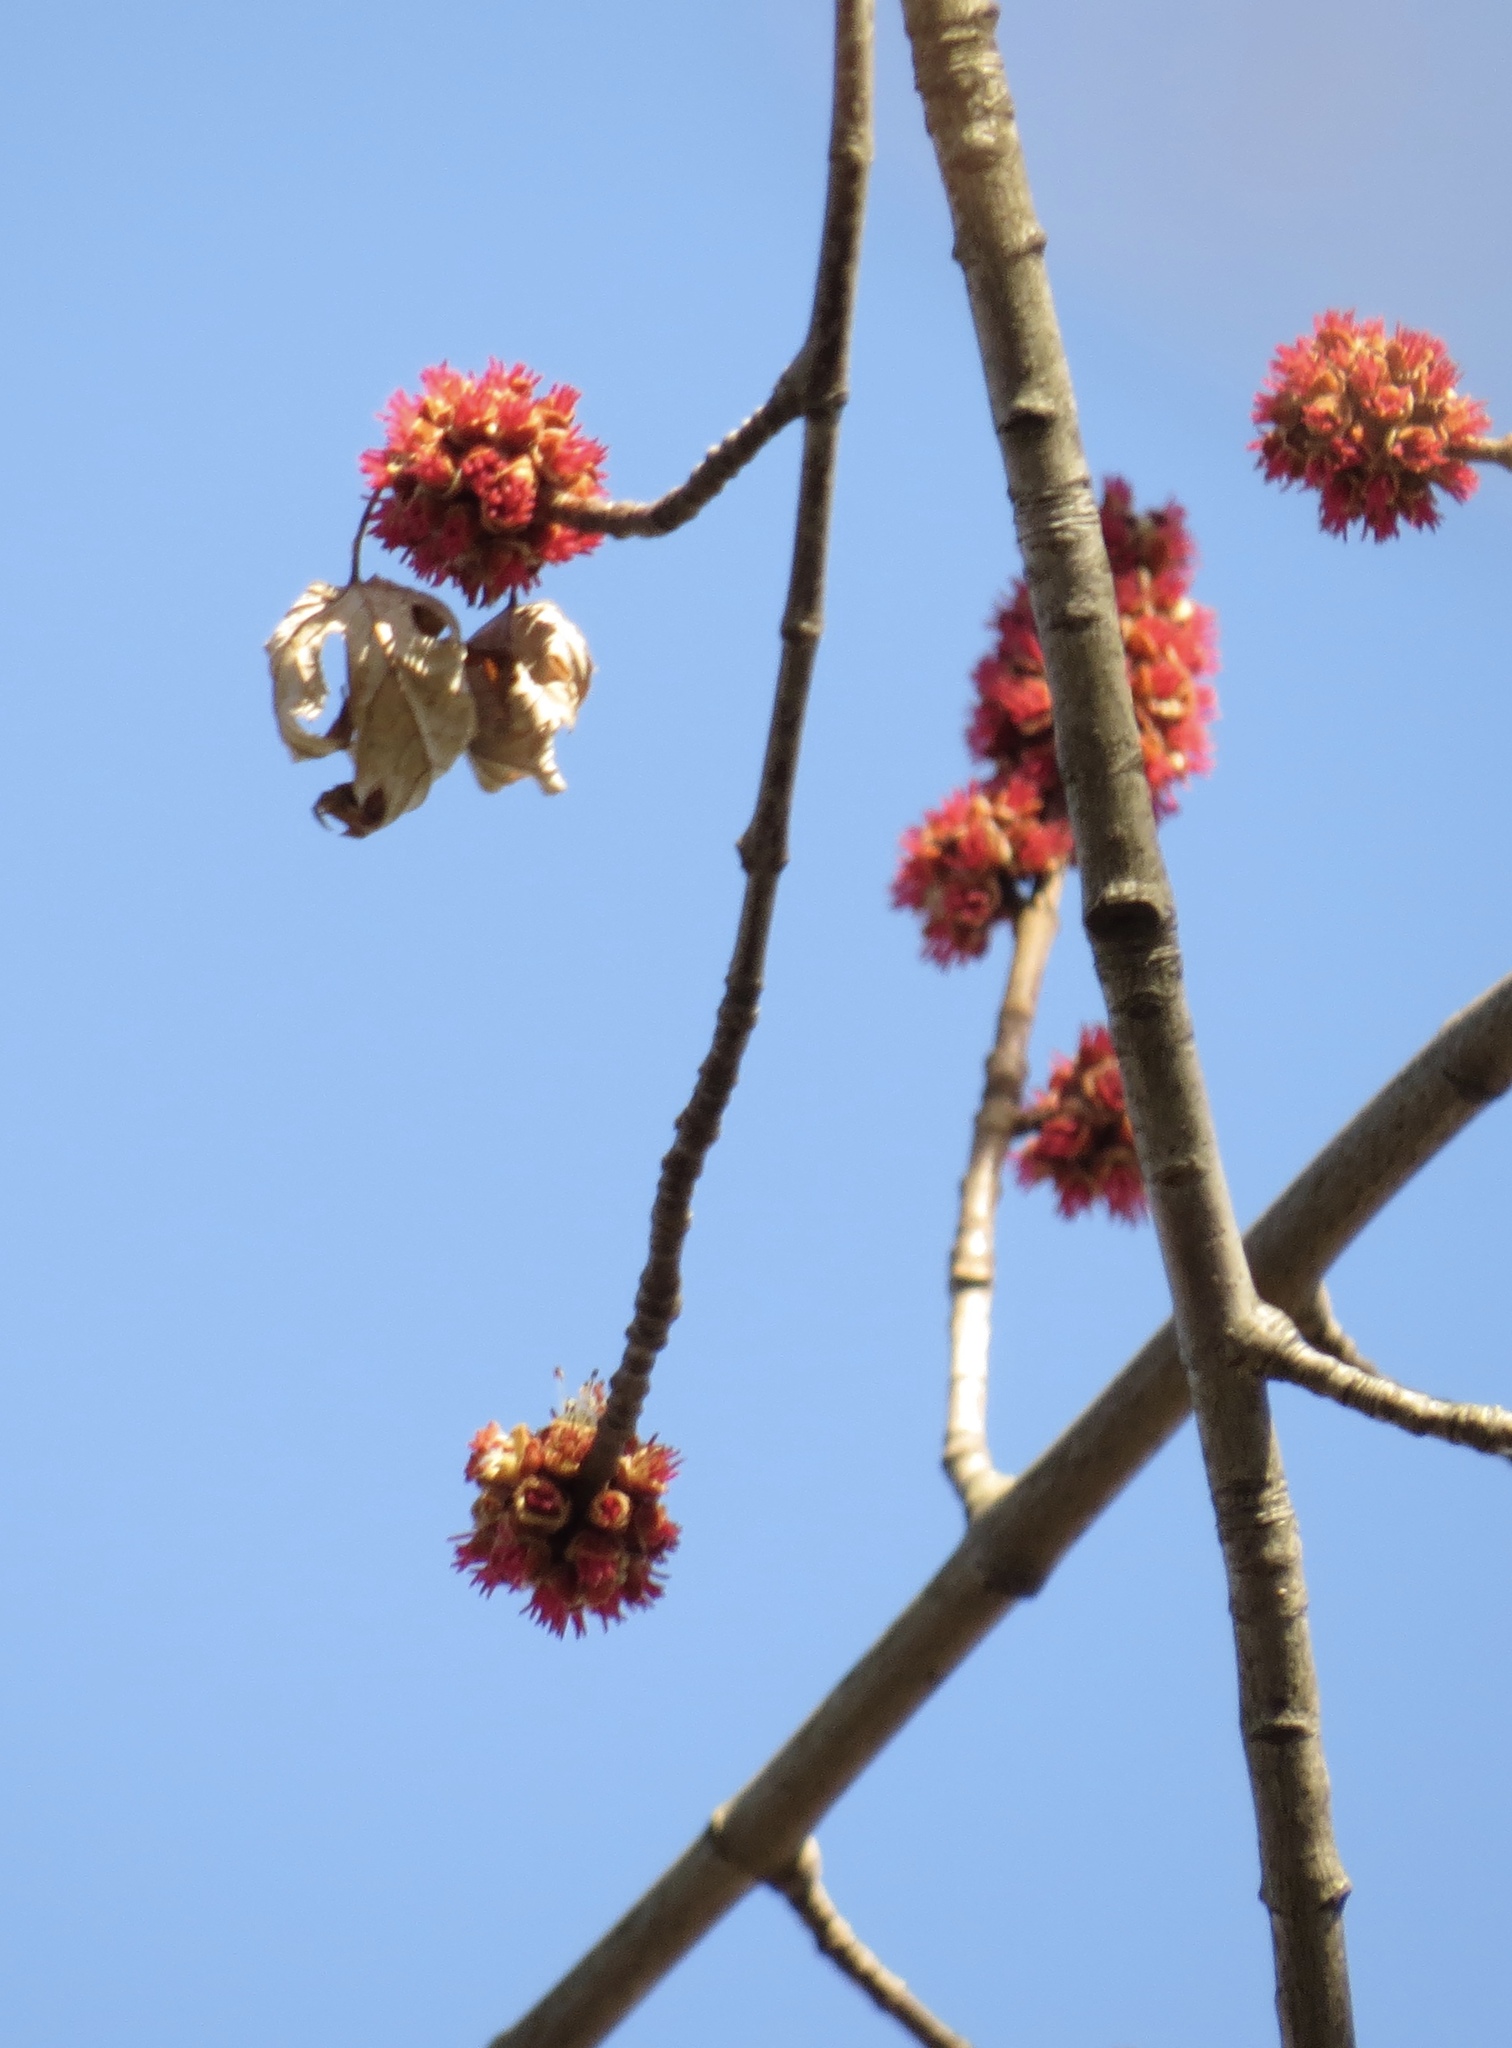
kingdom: Plantae
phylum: Tracheophyta
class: Magnoliopsida
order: Sapindales
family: Sapindaceae
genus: Acer
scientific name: Acer saccharinum
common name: Silver maple
